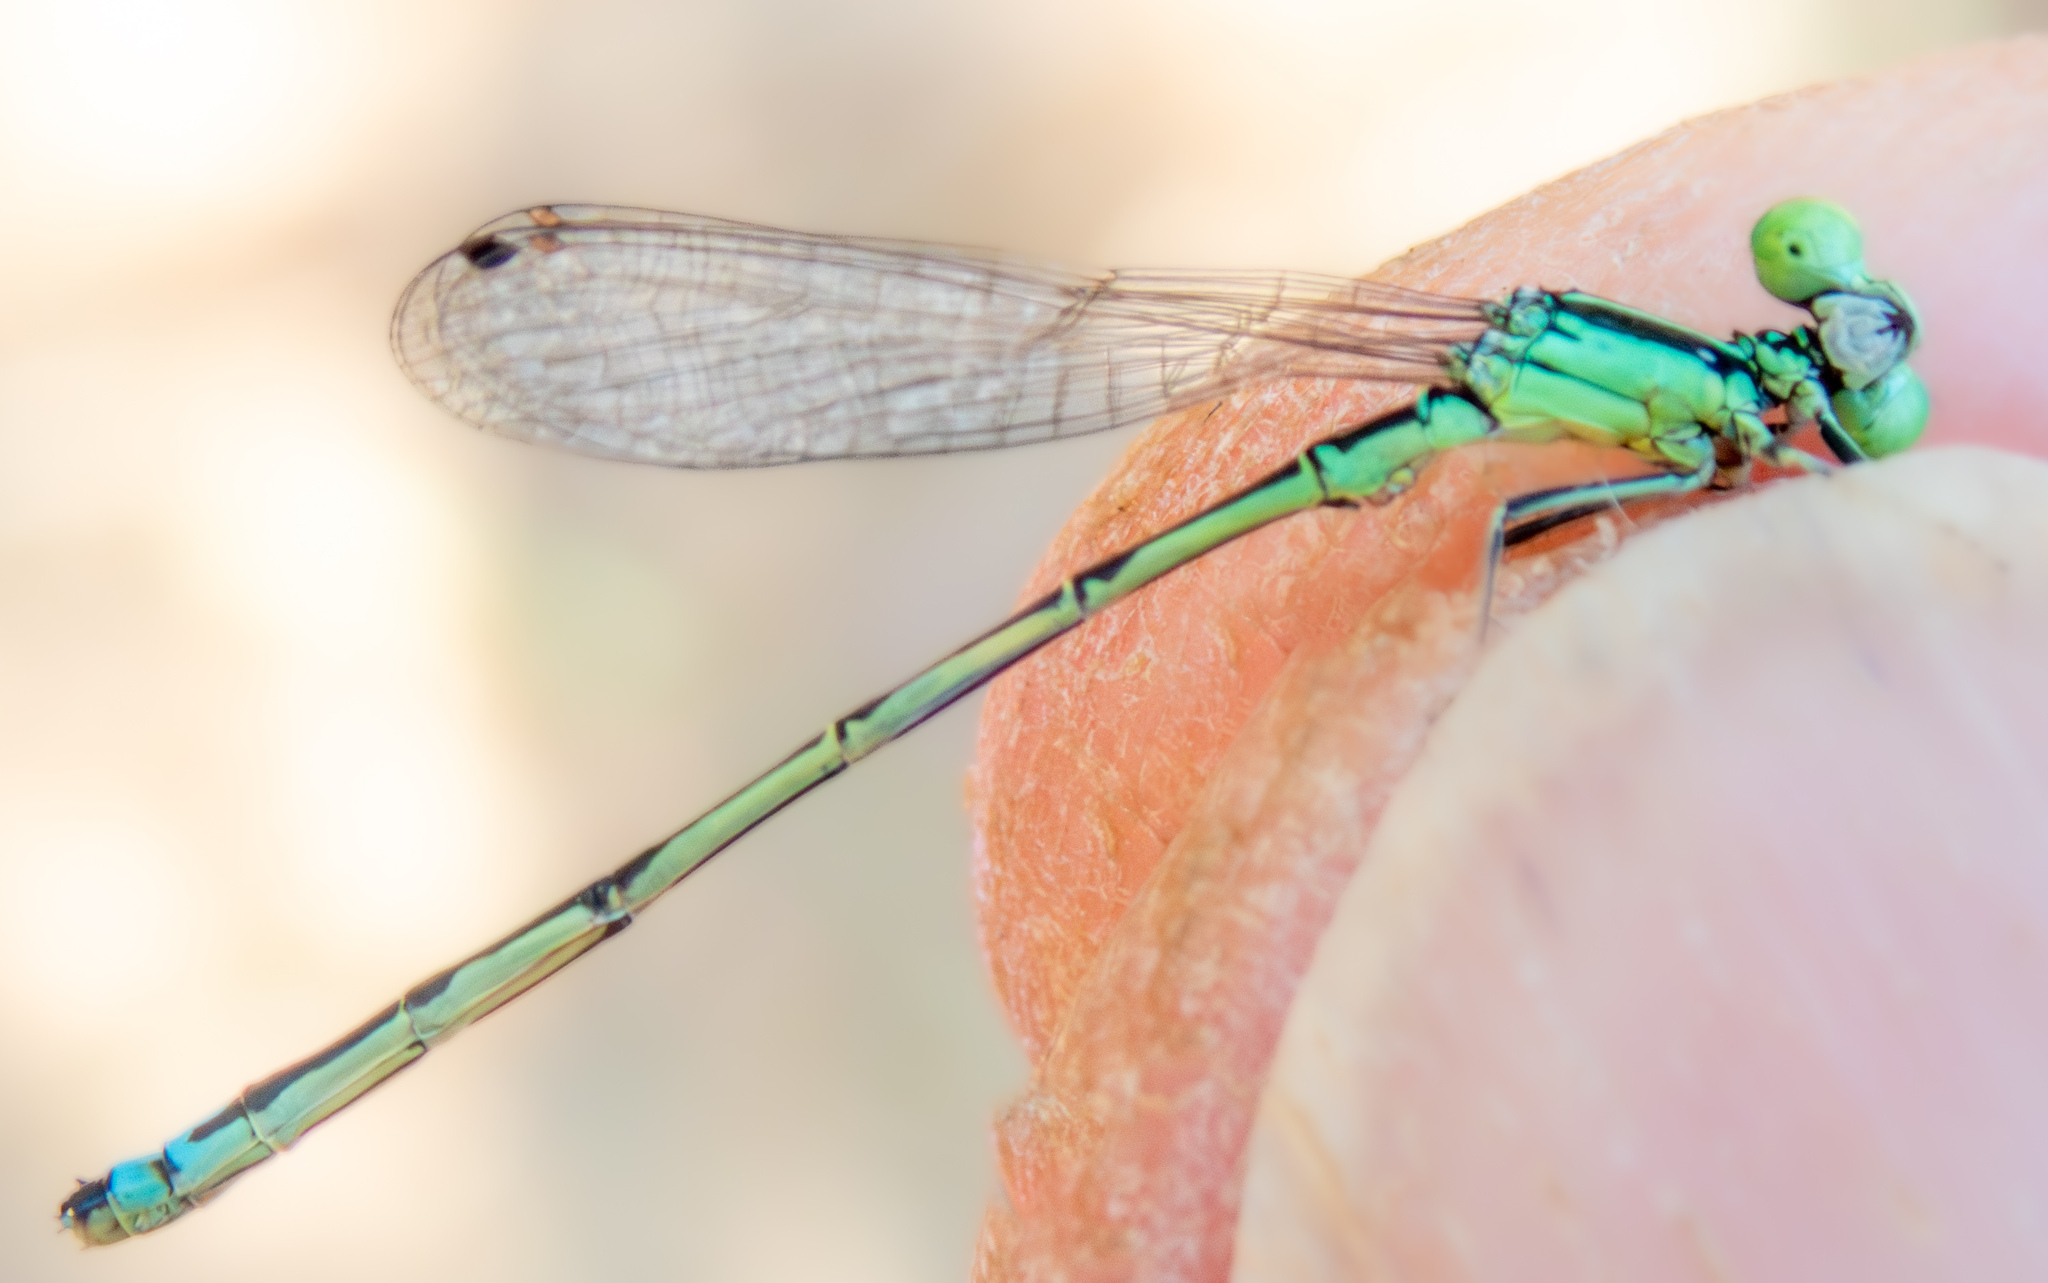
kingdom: Animalia
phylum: Arthropoda
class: Insecta
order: Odonata
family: Coenagrionidae
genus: Ischnura
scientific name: Ischnura perparva
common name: Western forktail
